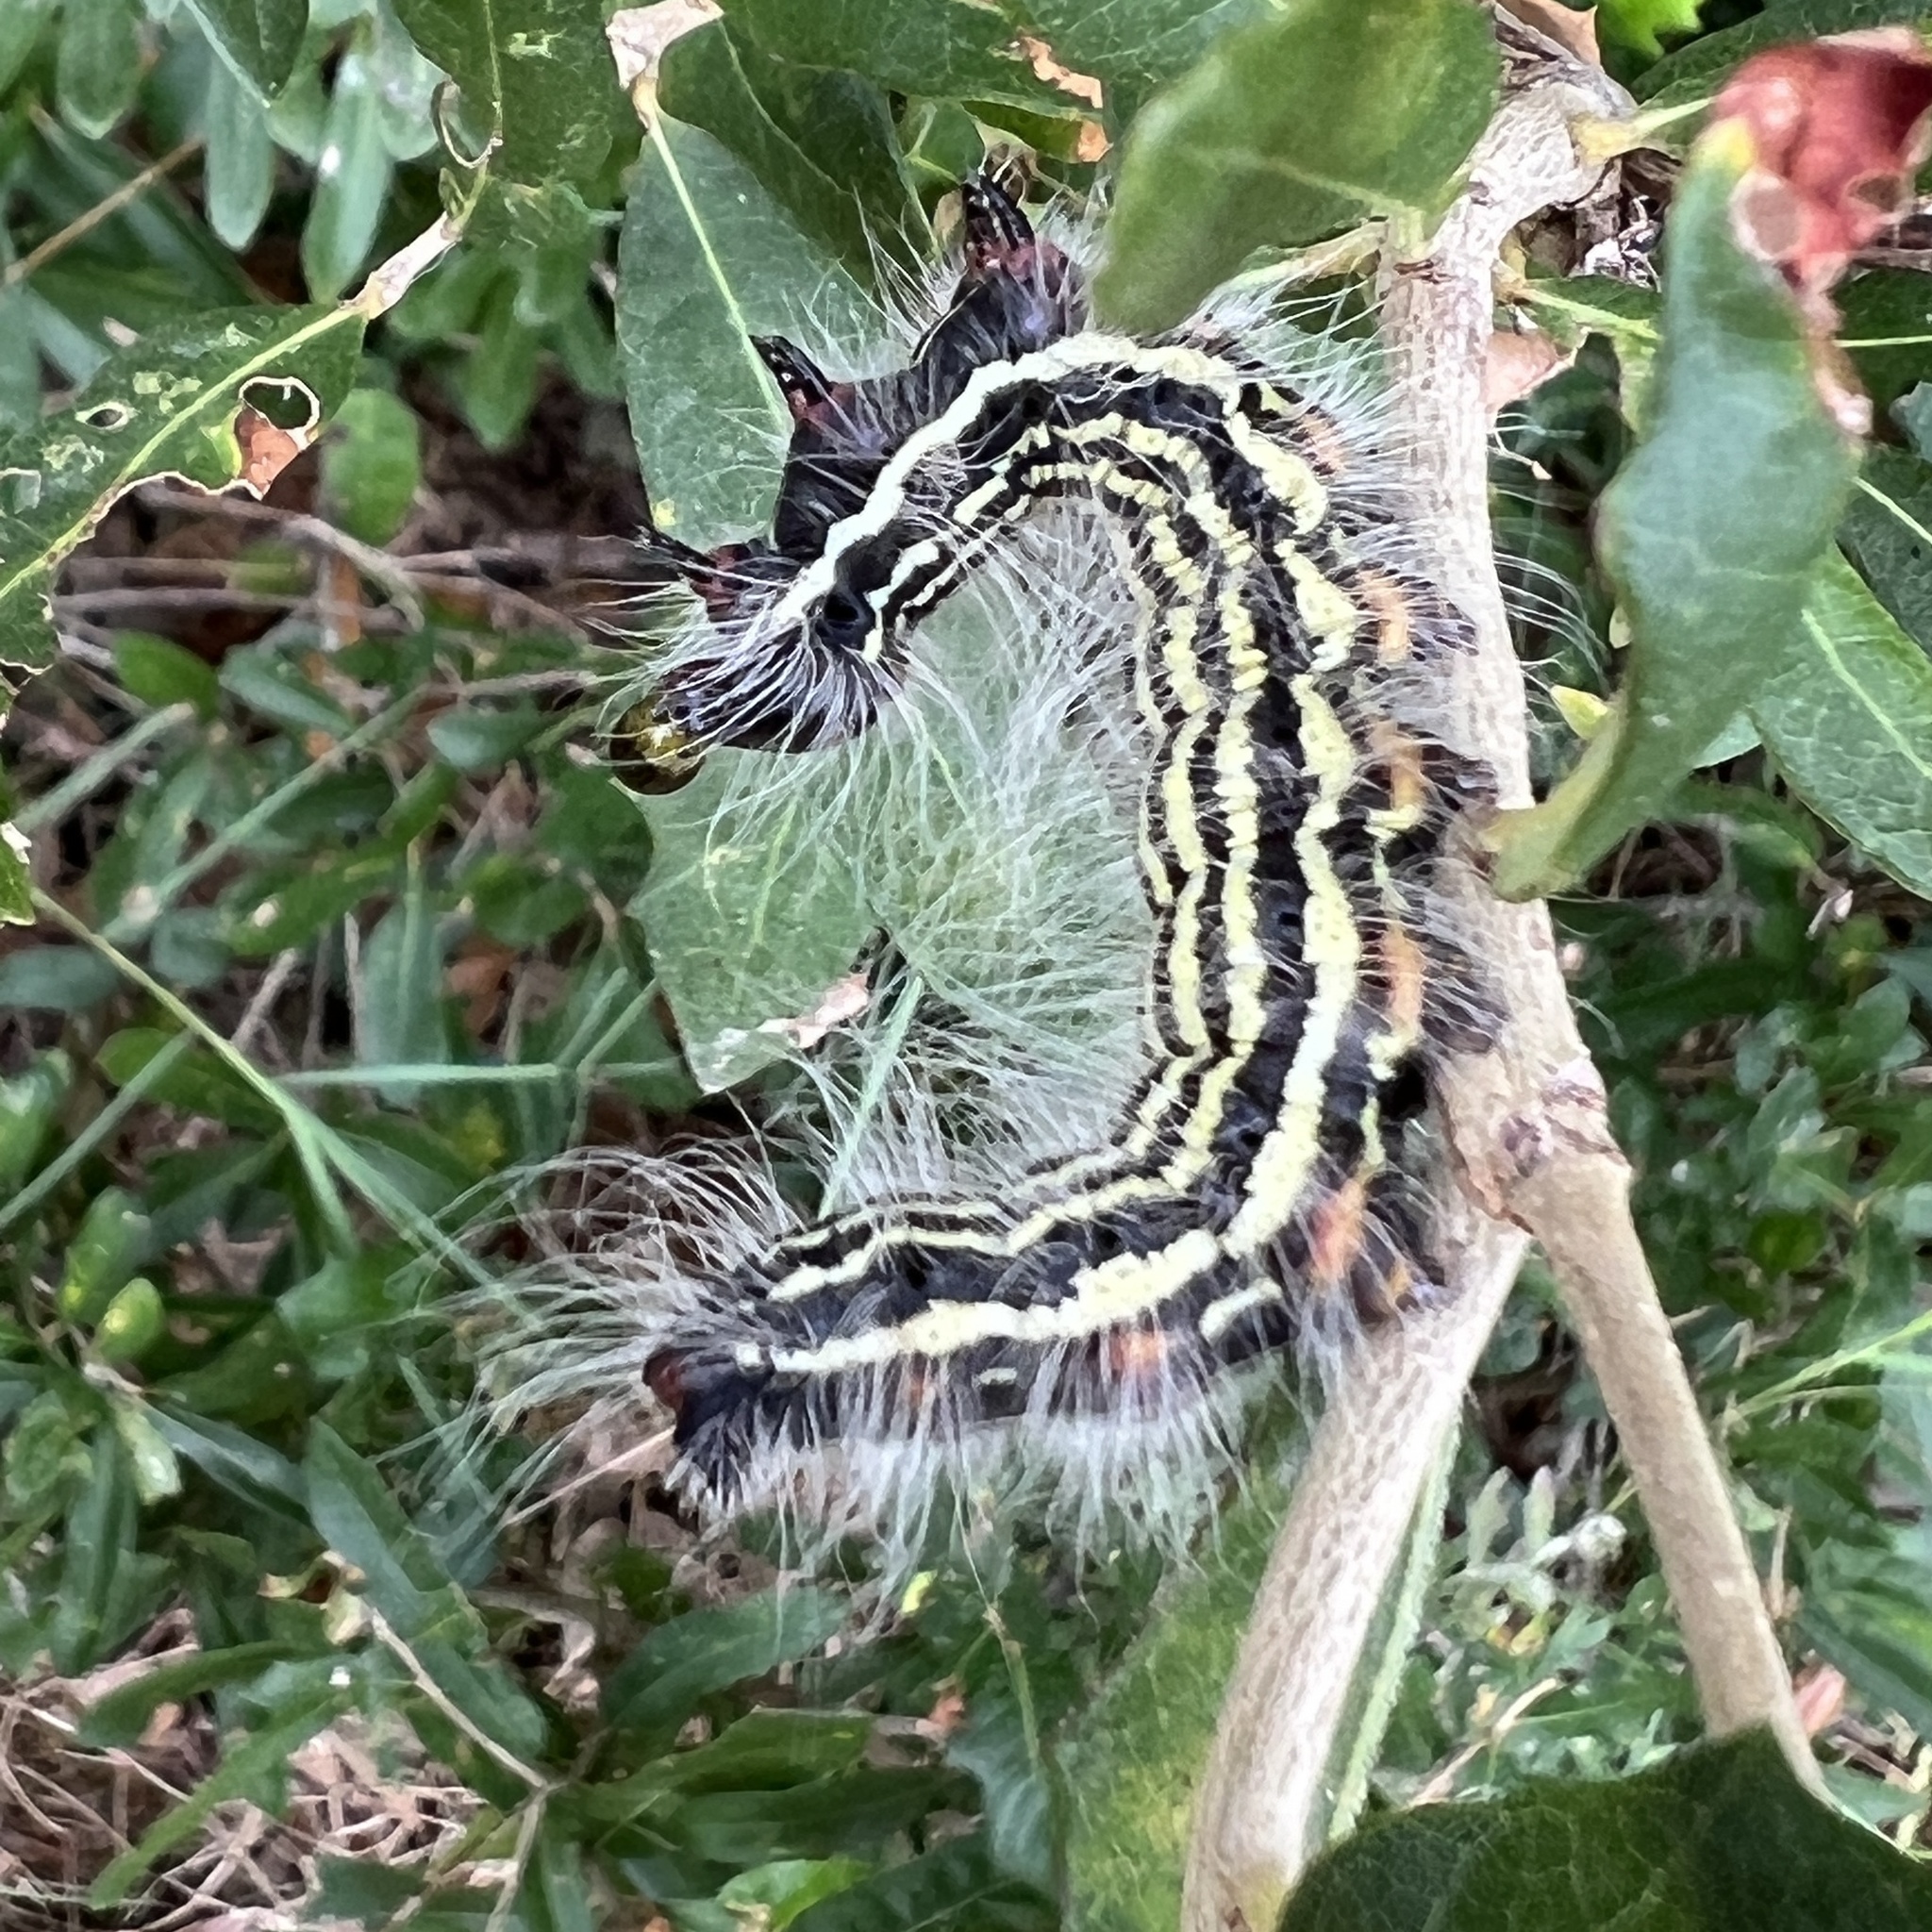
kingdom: Animalia
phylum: Arthropoda
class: Insecta
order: Lepidoptera
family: Notodontidae
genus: Datana
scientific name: Datana diffidens
